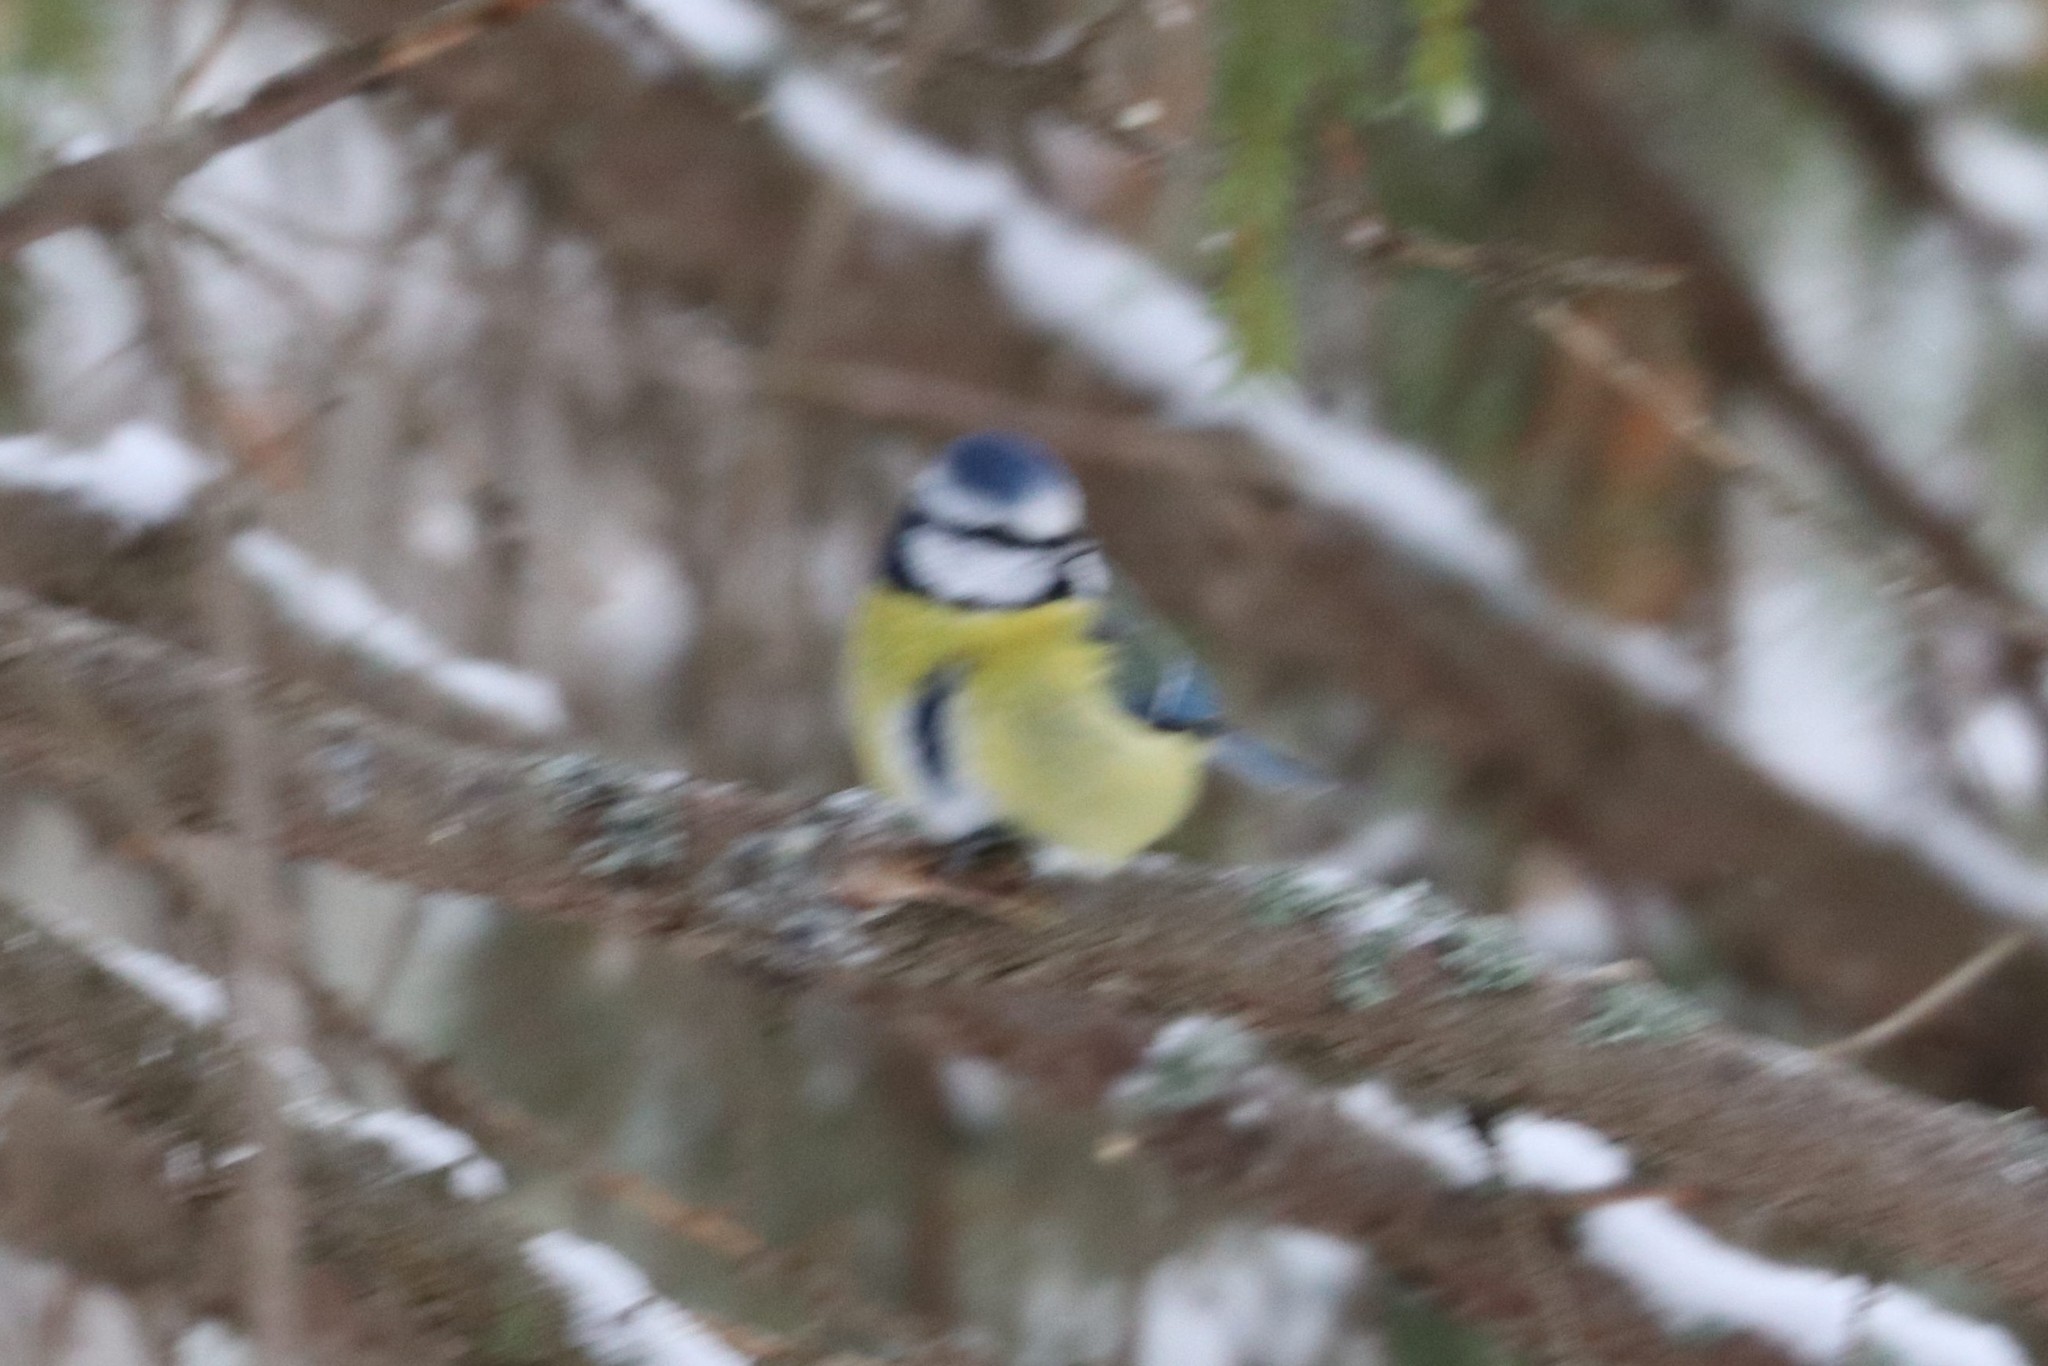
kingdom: Animalia
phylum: Chordata
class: Aves
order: Passeriformes
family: Paridae
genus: Cyanistes
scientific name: Cyanistes caeruleus
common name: Eurasian blue tit
